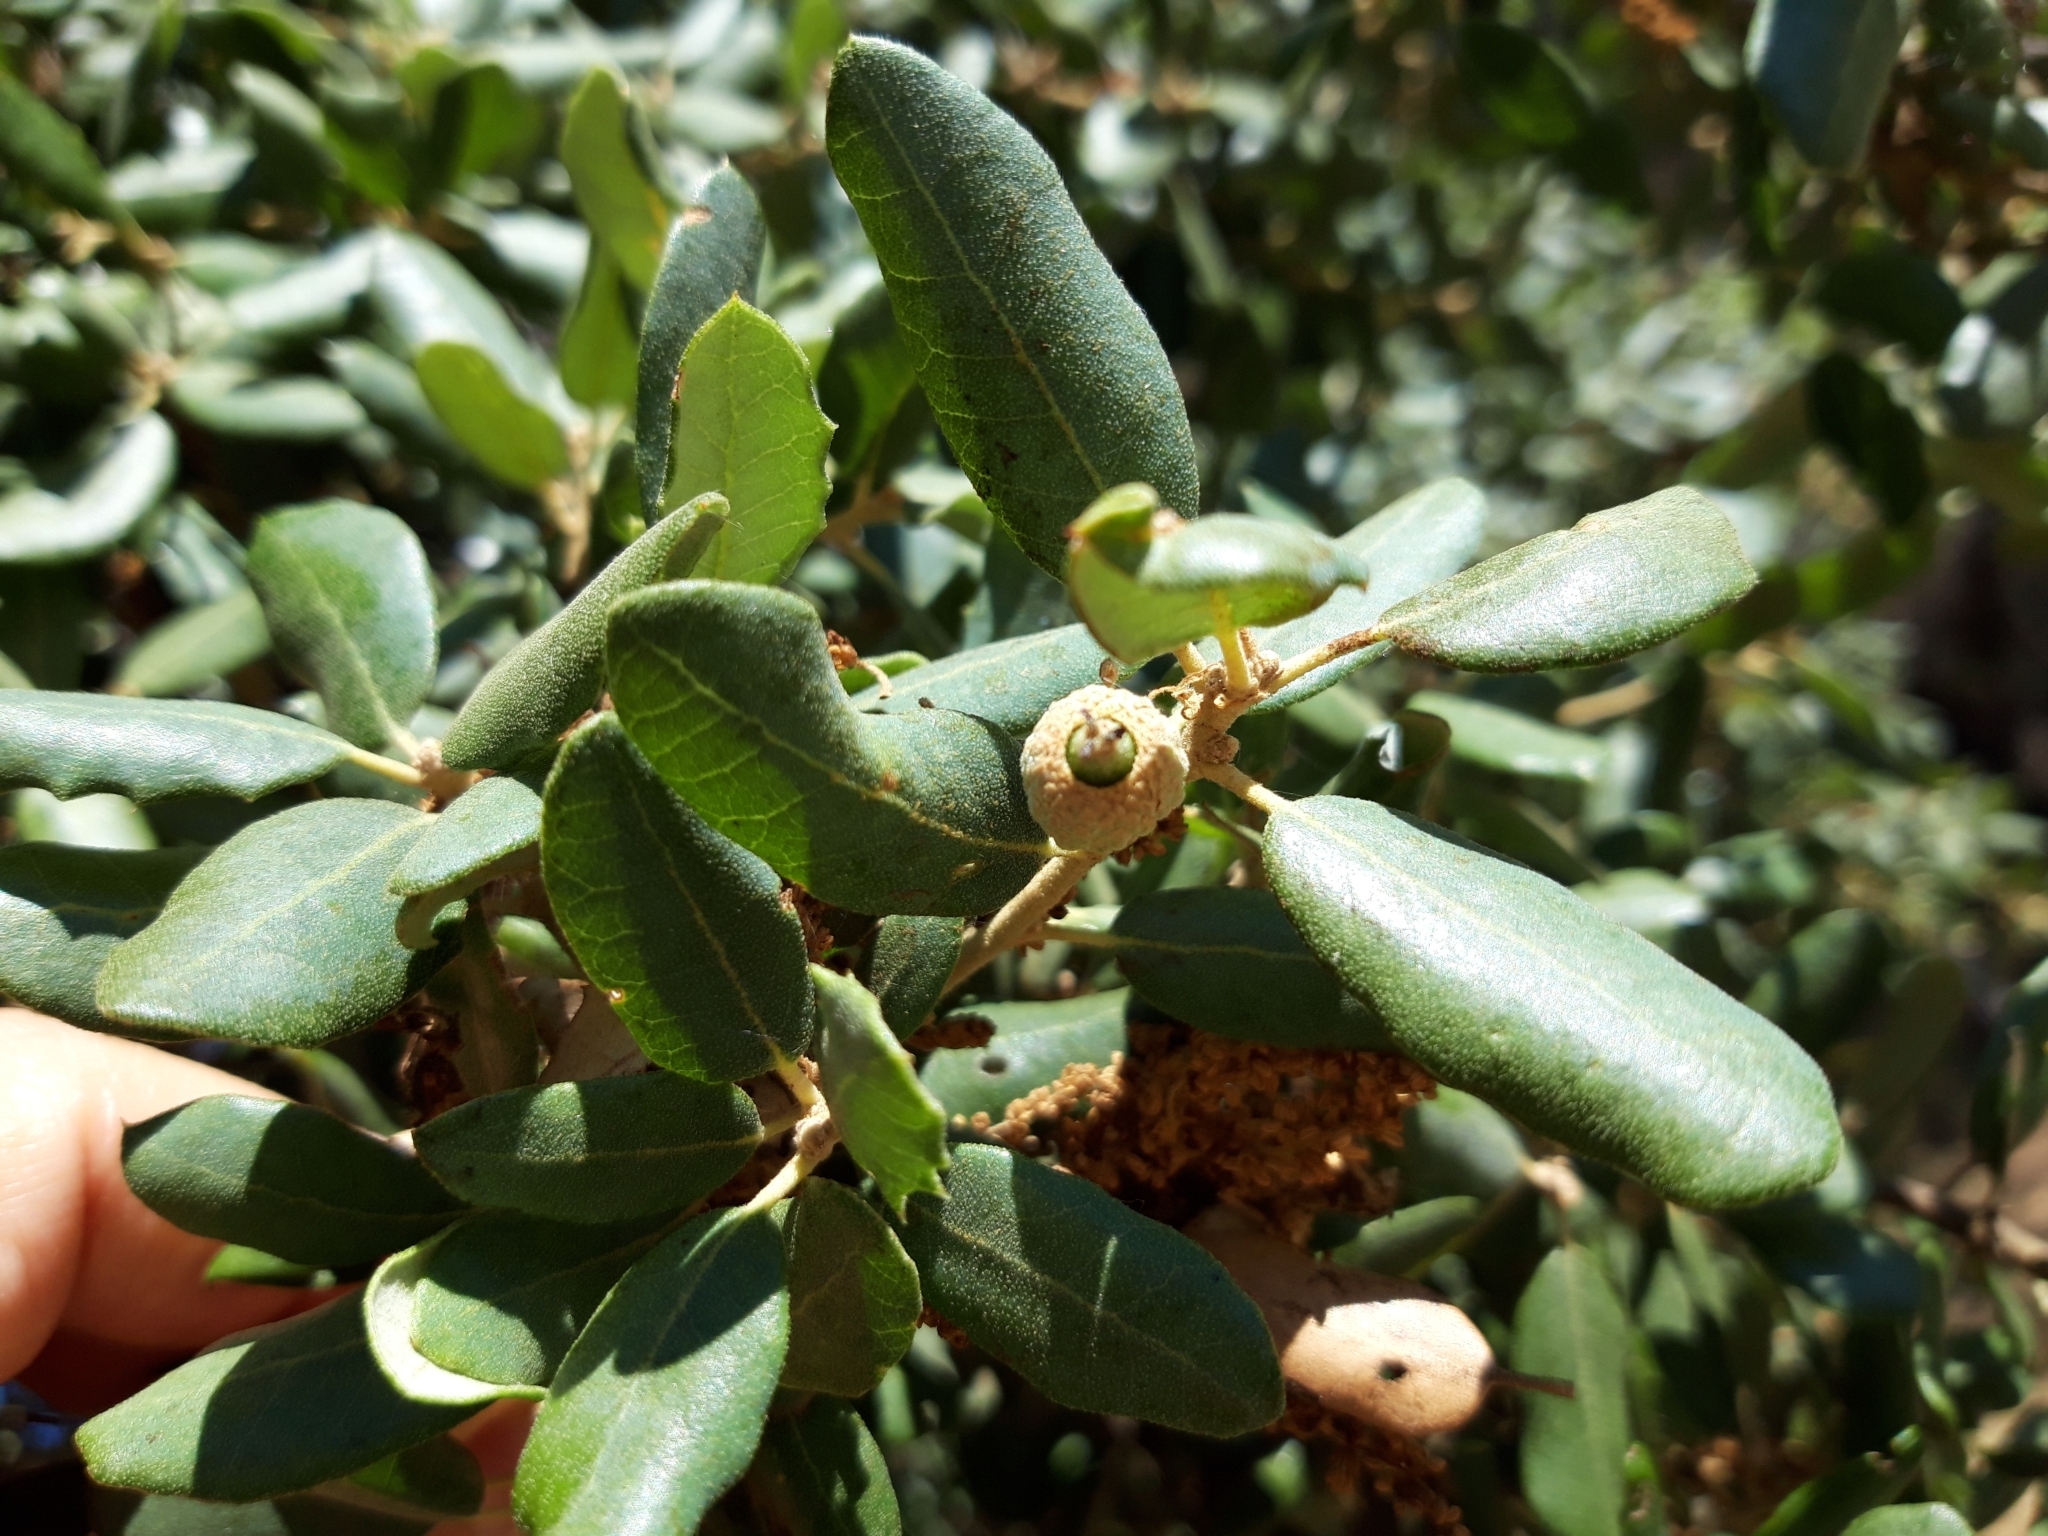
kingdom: Plantae
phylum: Tracheophyta
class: Magnoliopsida
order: Fagales
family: Fagaceae
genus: Quercus
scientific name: Quercus rotundifolia
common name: Holm oak
